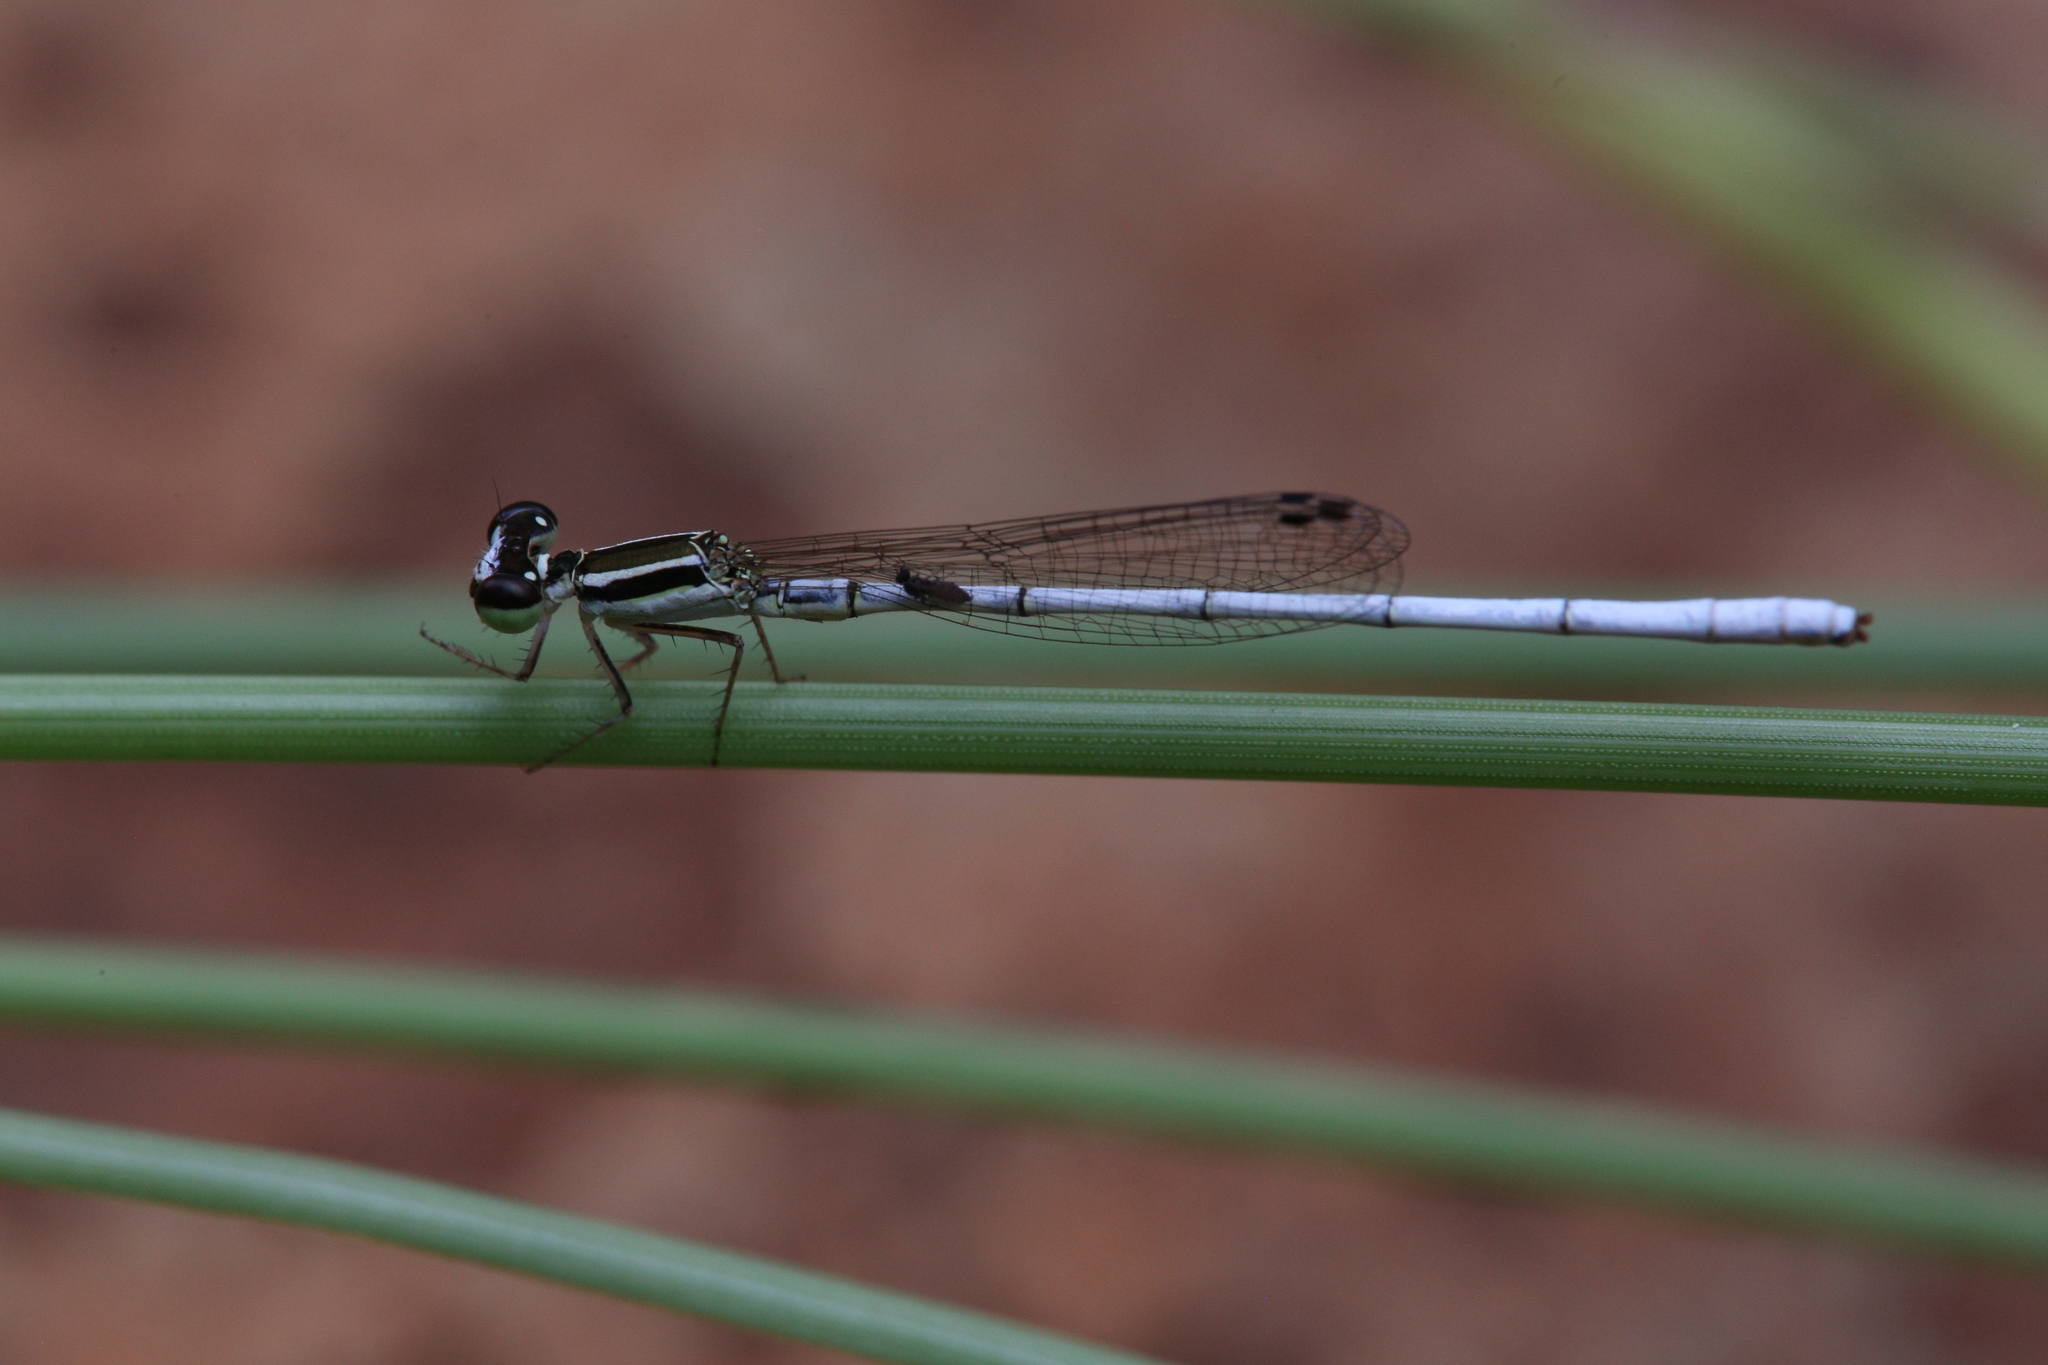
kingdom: Animalia
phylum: Arthropoda
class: Insecta
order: Odonata
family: Coenagrionidae
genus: Agriocnemis
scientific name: Agriocnemis argentea
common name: Silver wisp
